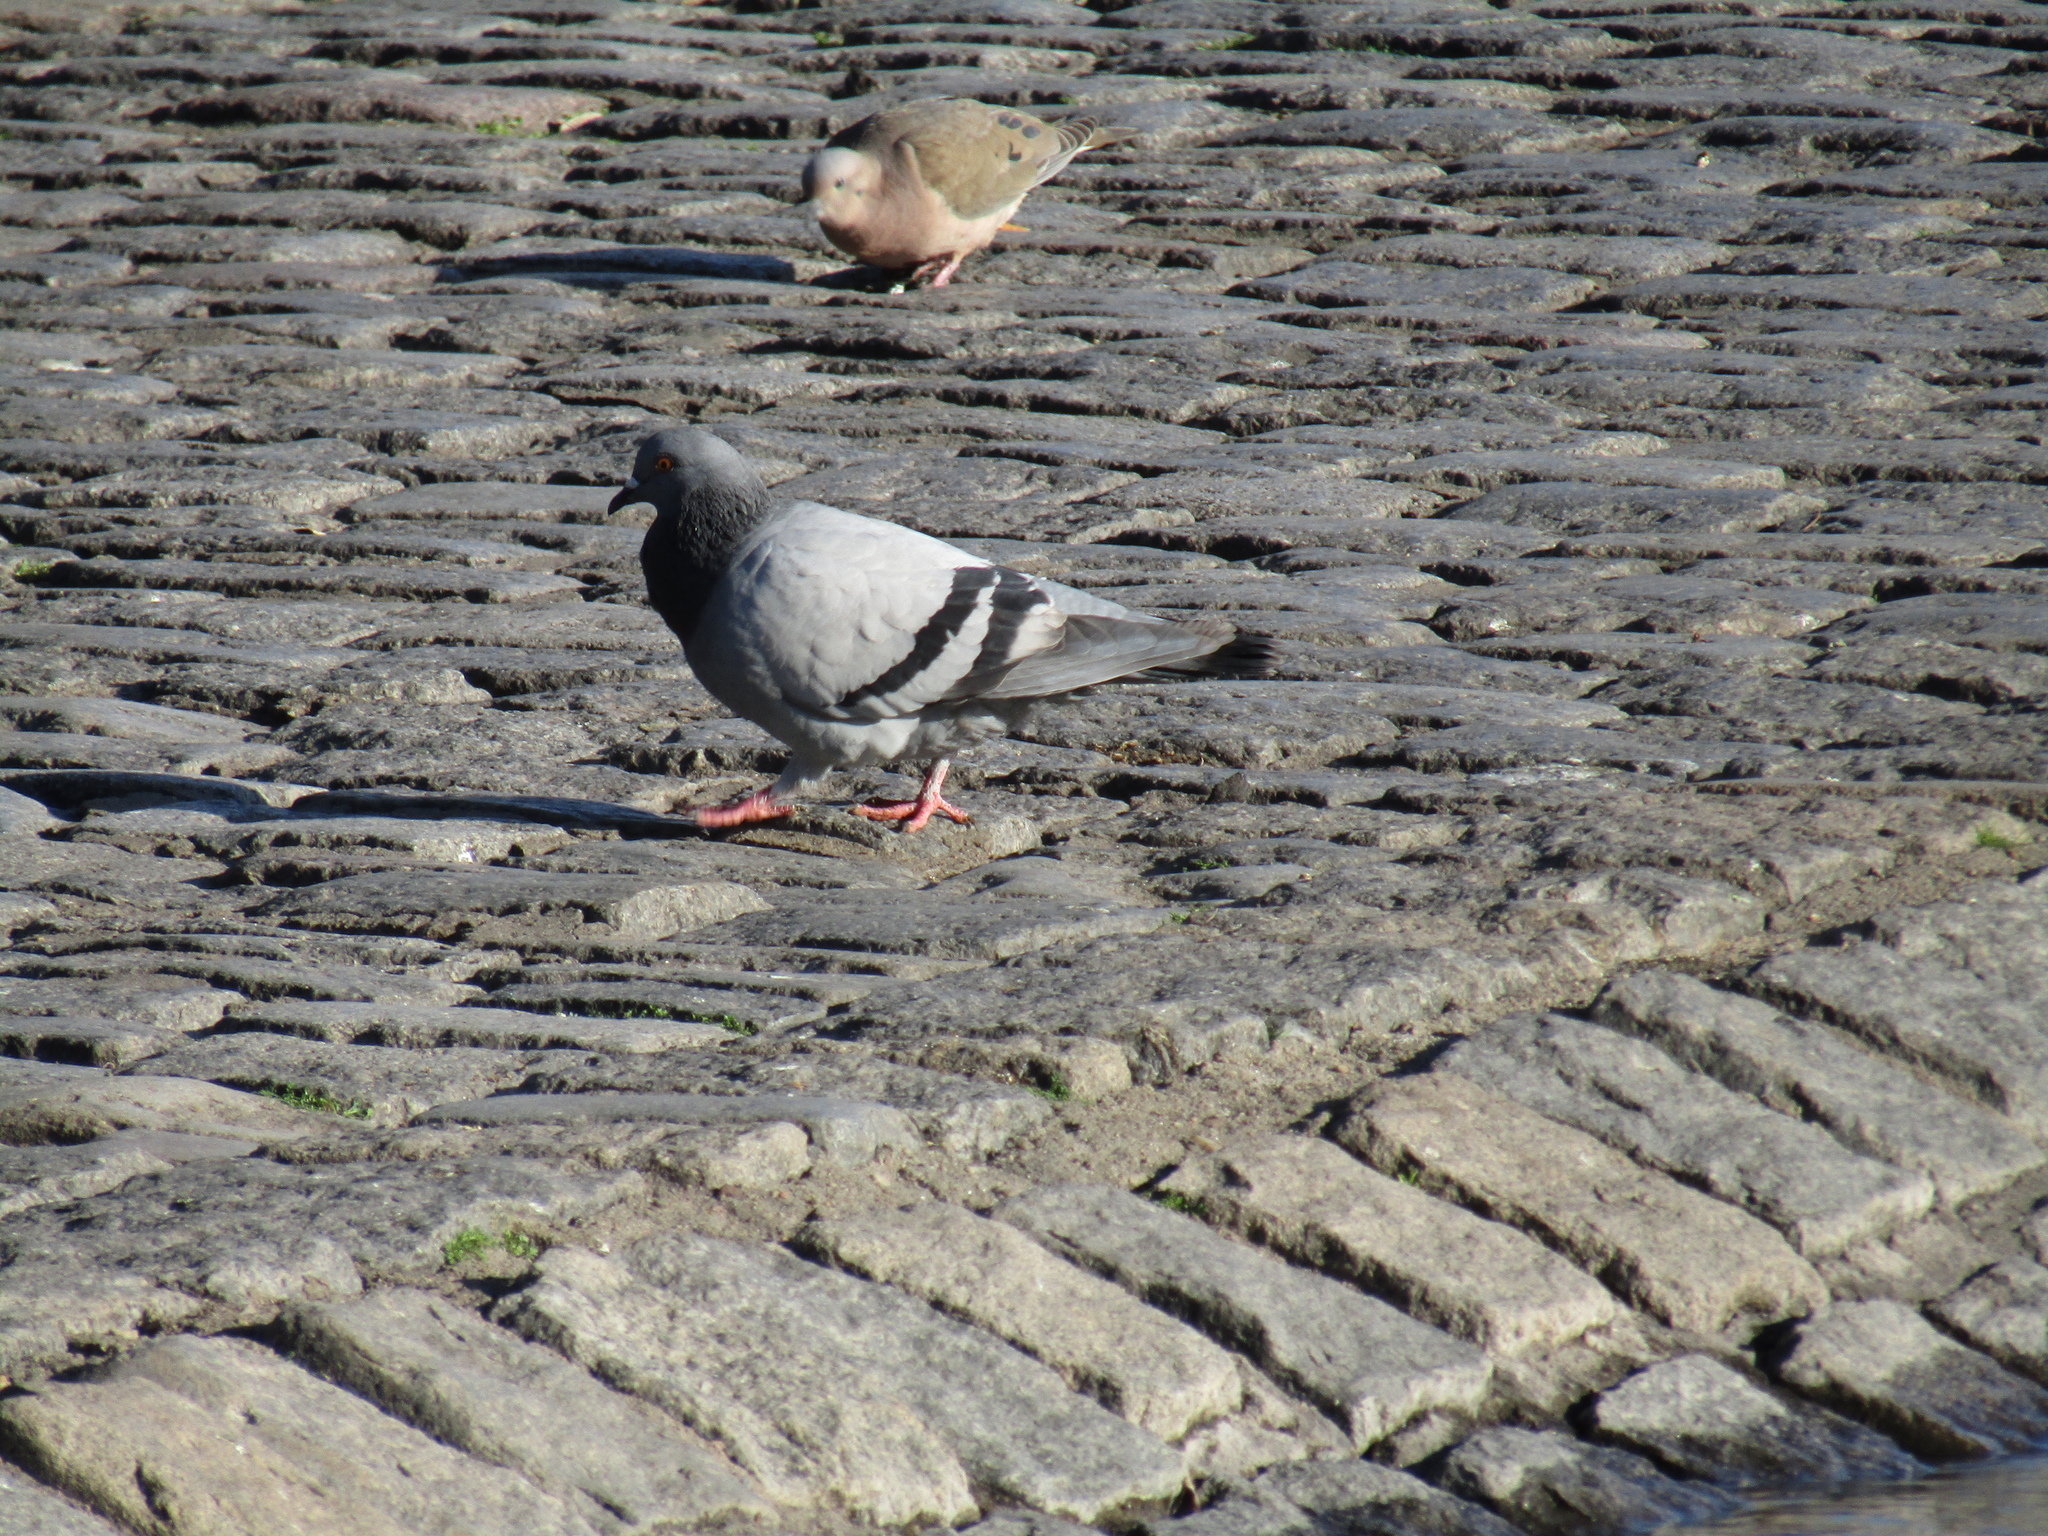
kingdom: Animalia
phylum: Chordata
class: Aves
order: Columbiformes
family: Columbidae
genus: Columba
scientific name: Columba livia
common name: Rock pigeon
